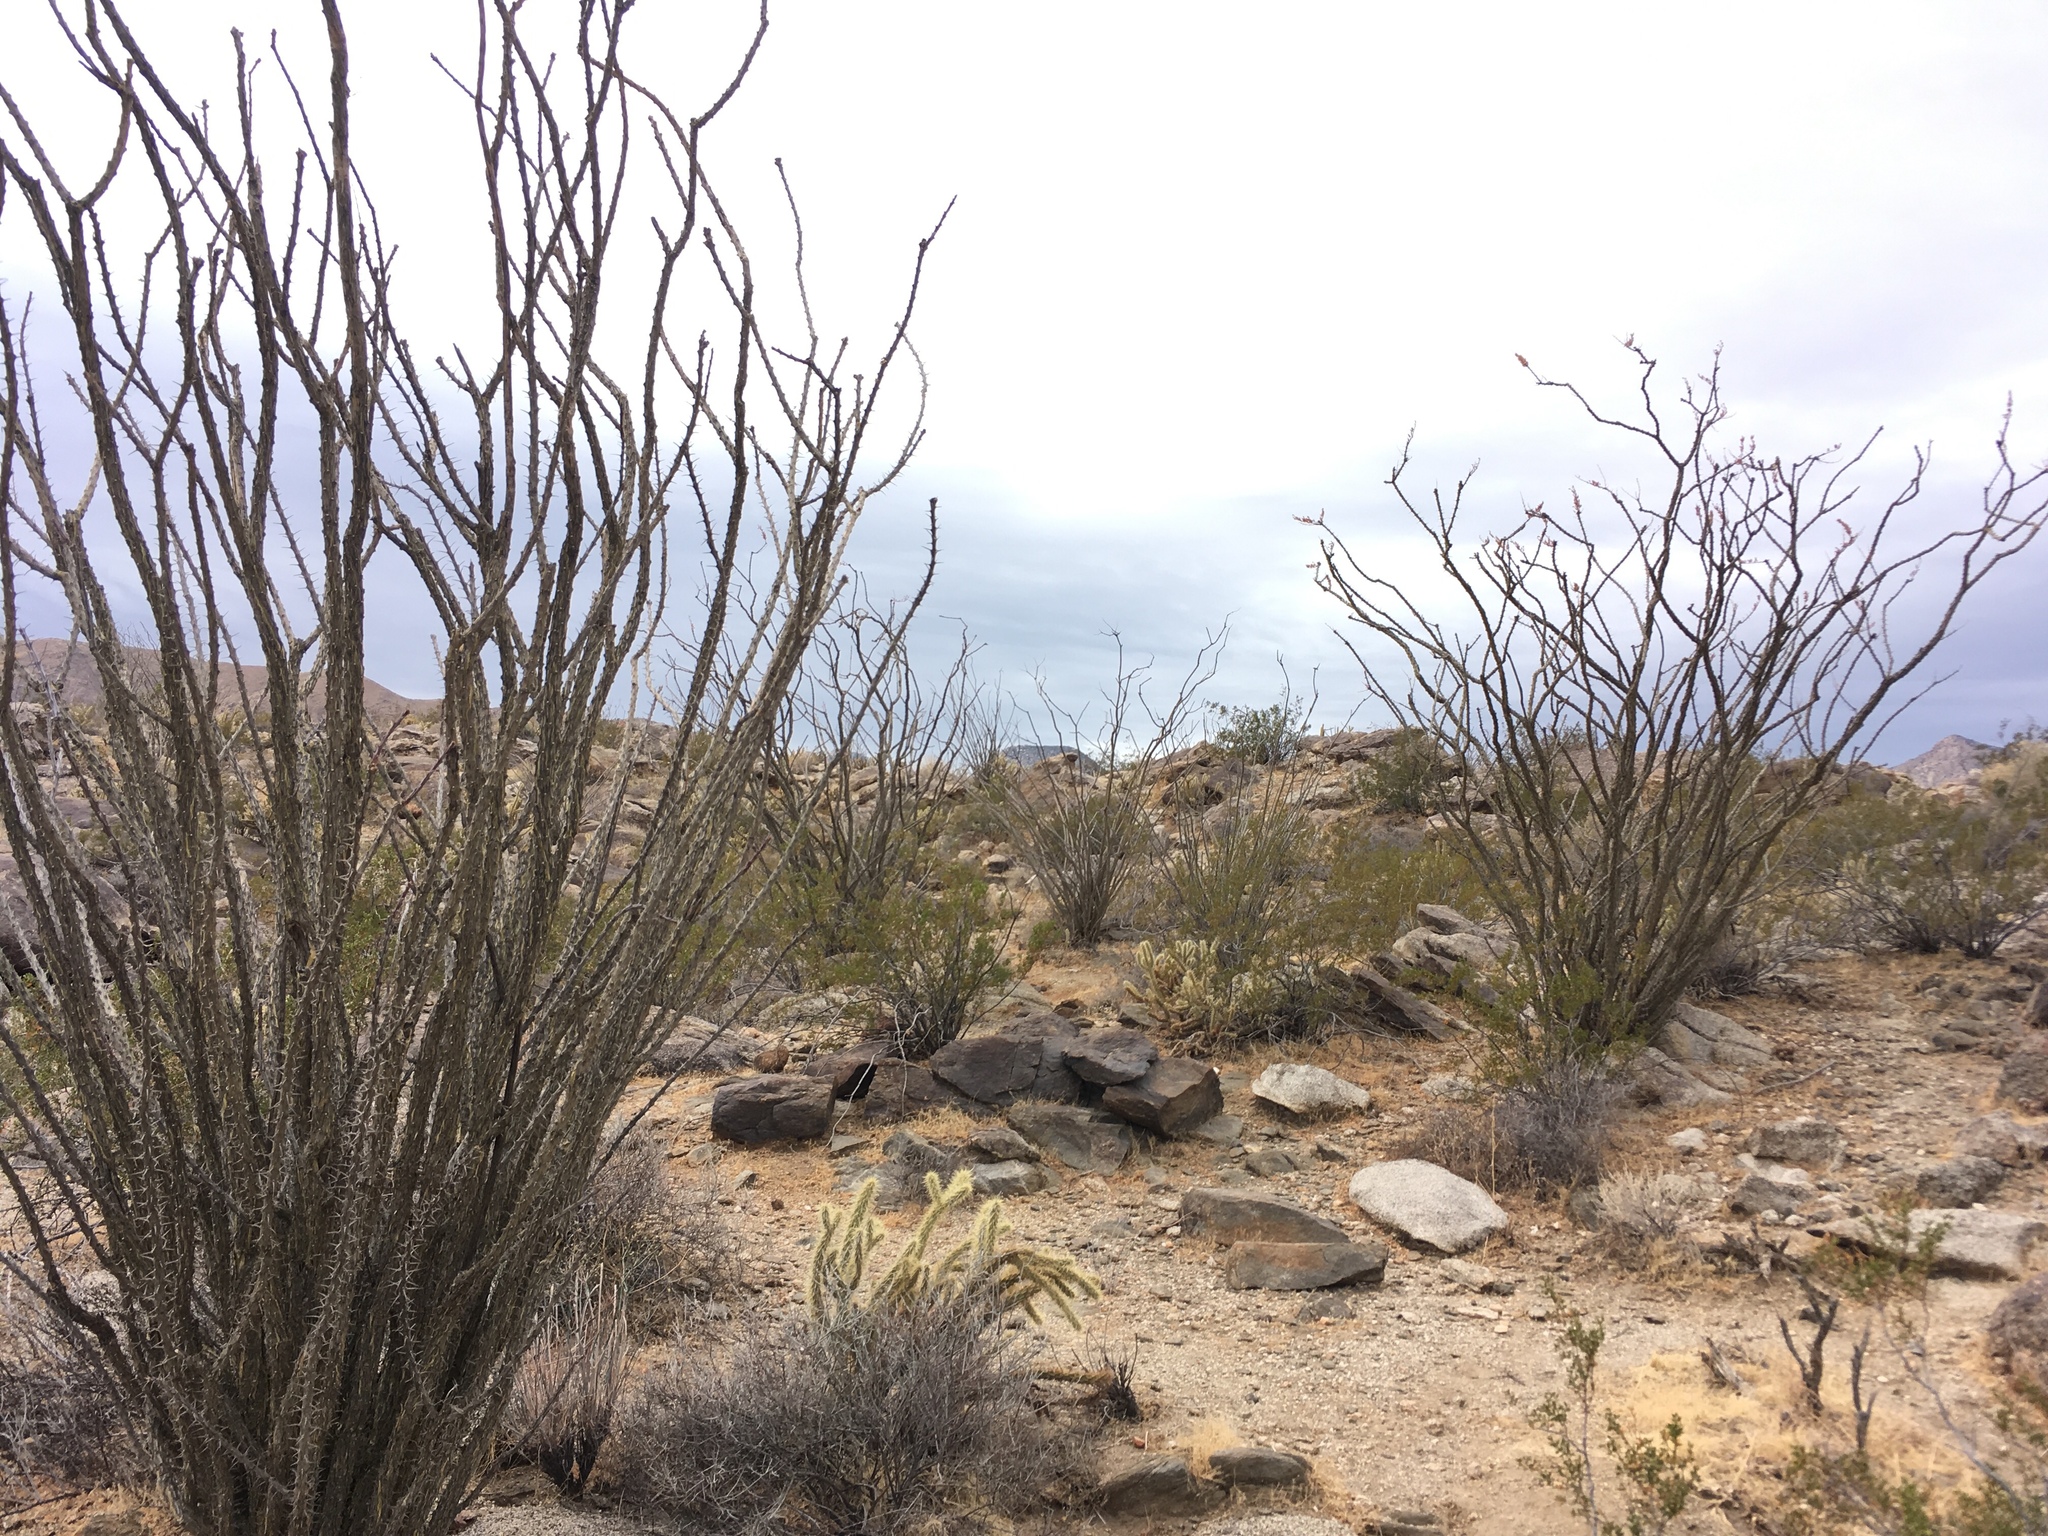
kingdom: Plantae
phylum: Tracheophyta
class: Magnoliopsida
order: Ericales
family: Fouquieriaceae
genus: Fouquieria
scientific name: Fouquieria splendens
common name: Vine-cactus
